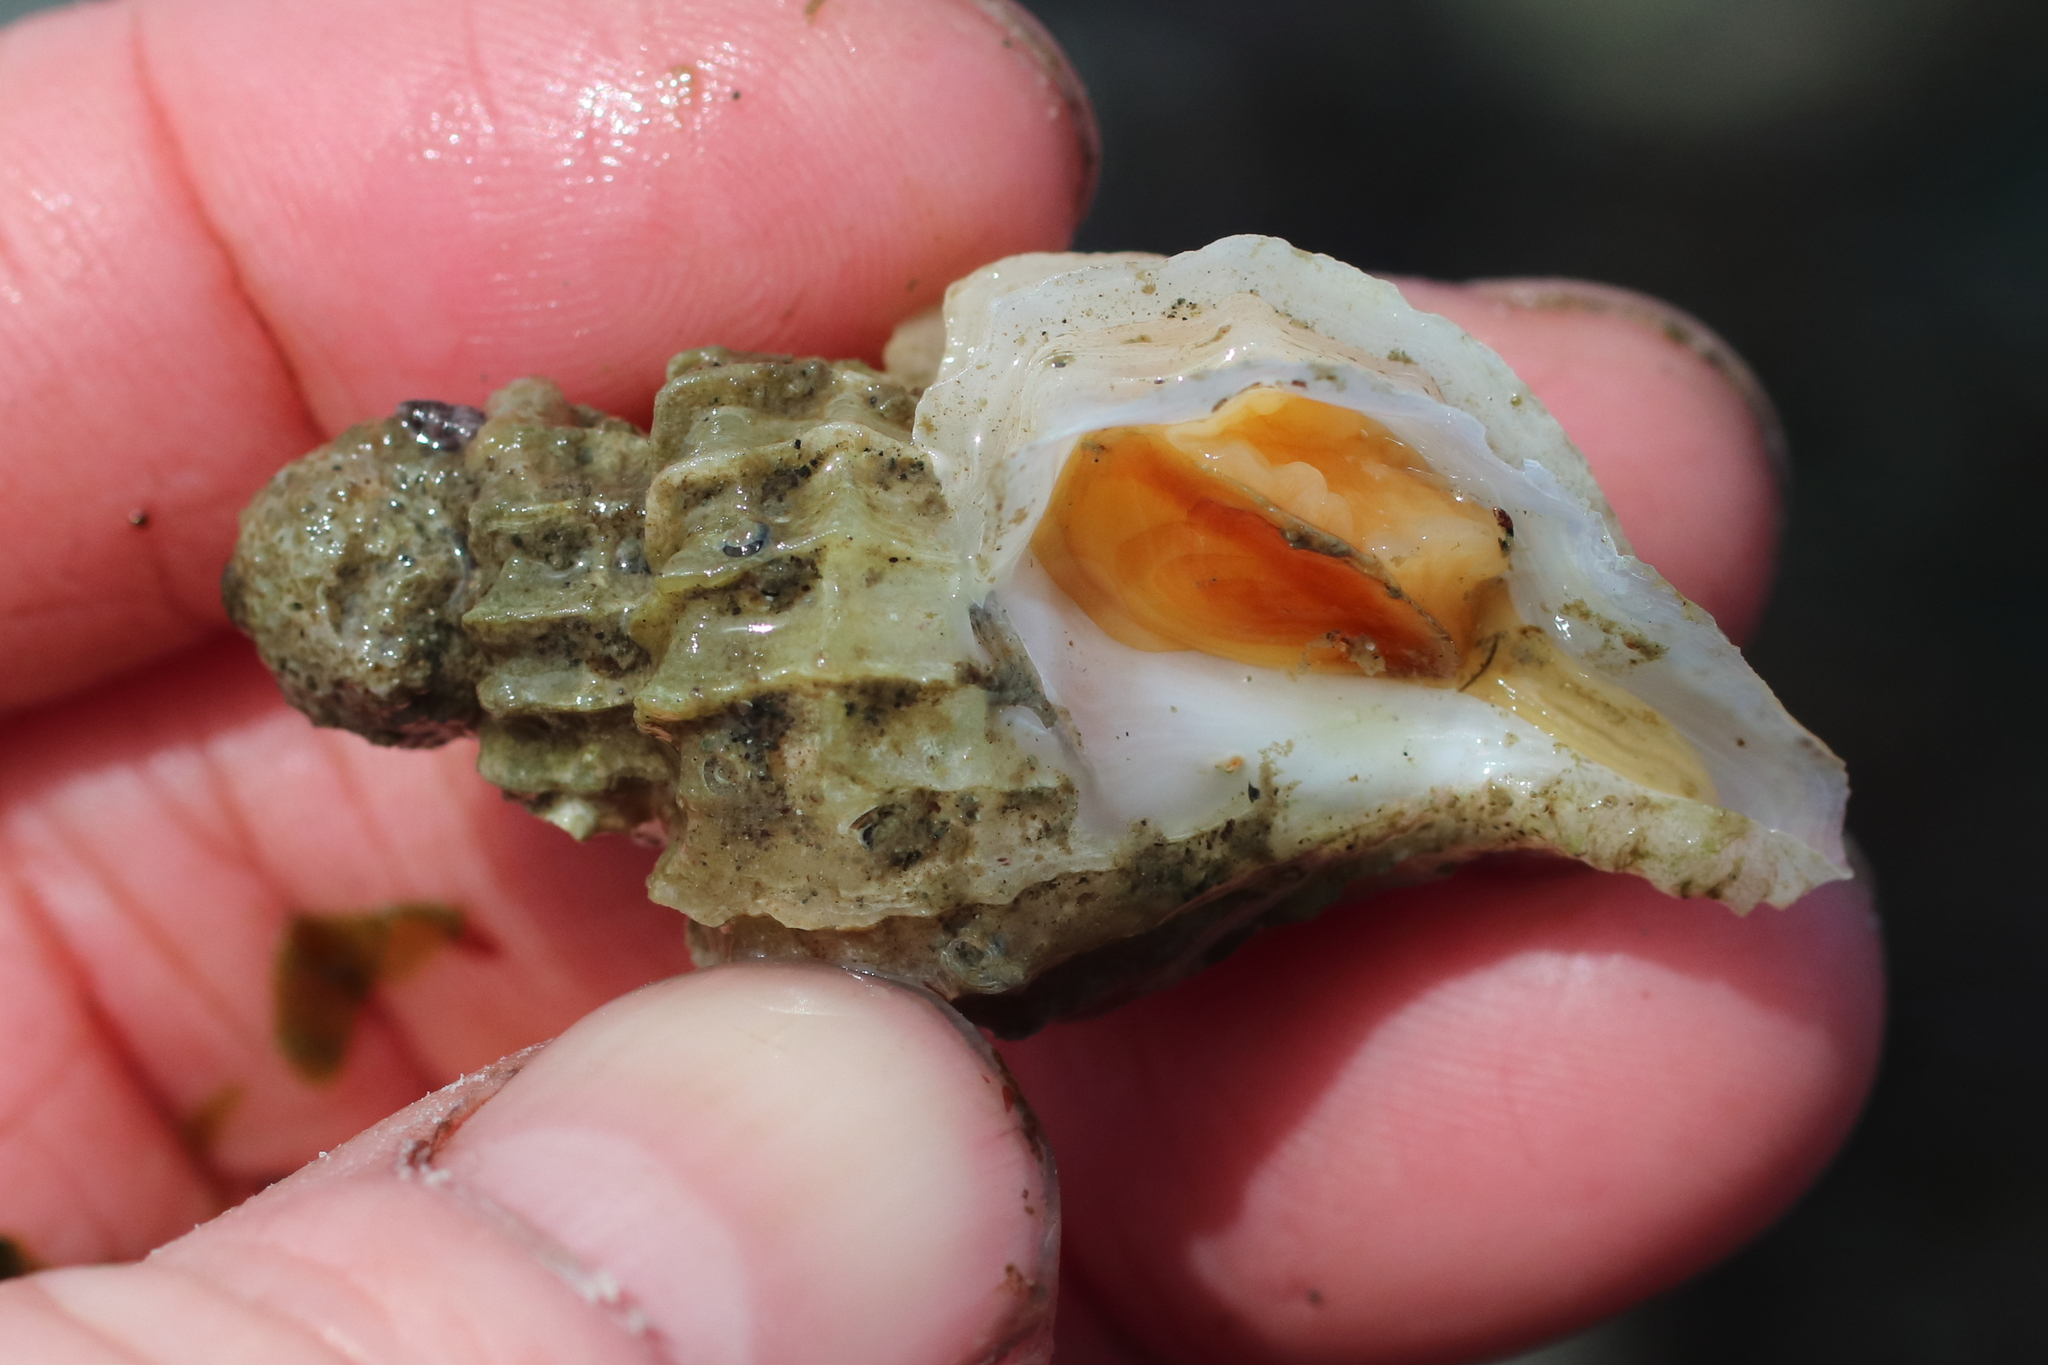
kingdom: Animalia
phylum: Mollusca
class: Gastropoda
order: Neogastropoda
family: Muricidae
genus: Scabrotrophon
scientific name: Scabrotrophon stuarti
